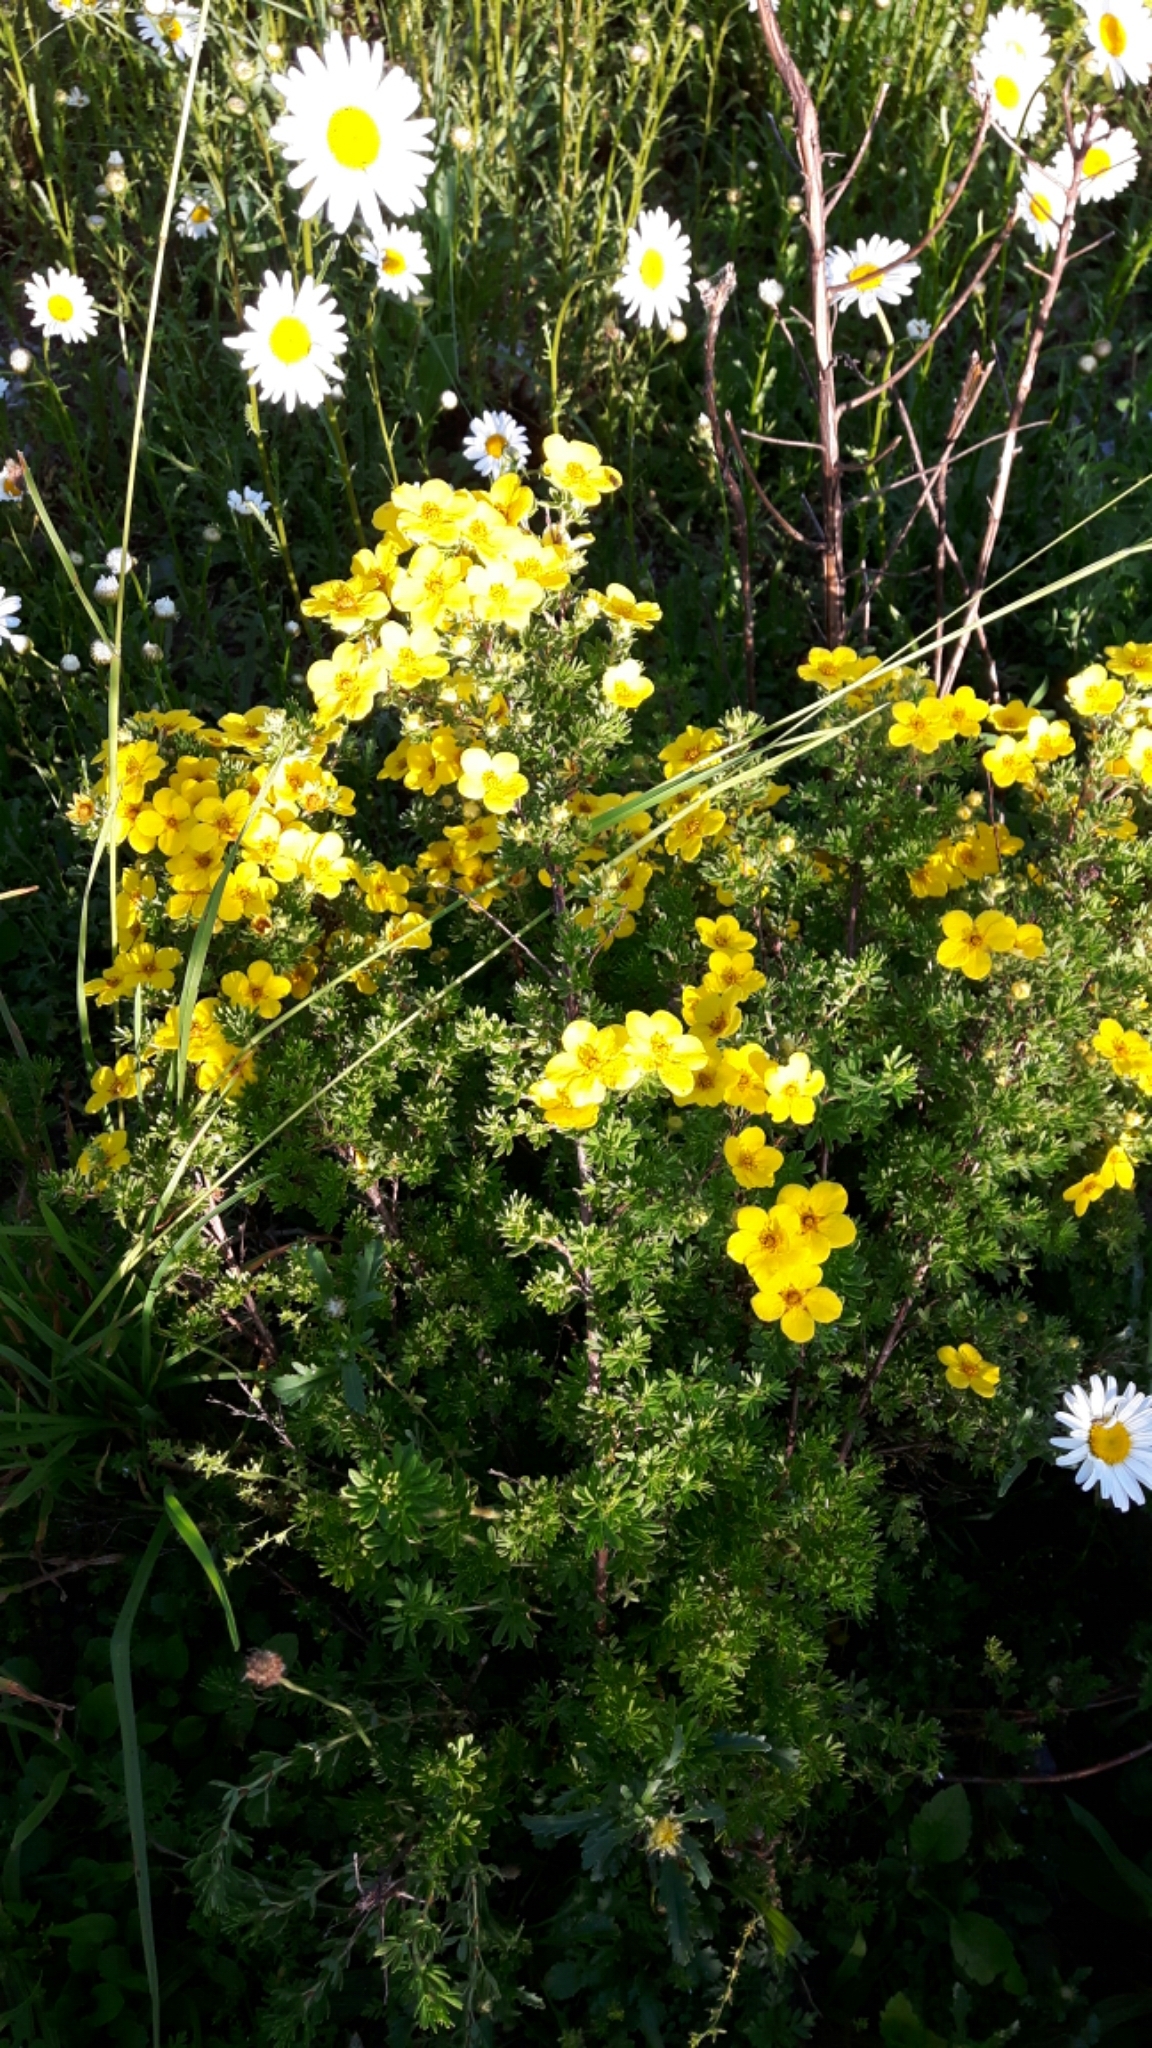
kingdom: Plantae
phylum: Tracheophyta
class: Magnoliopsida
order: Rosales
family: Rosaceae
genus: Dasiphora
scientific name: Dasiphora fruticosa
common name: Shrubby cinquefoil
